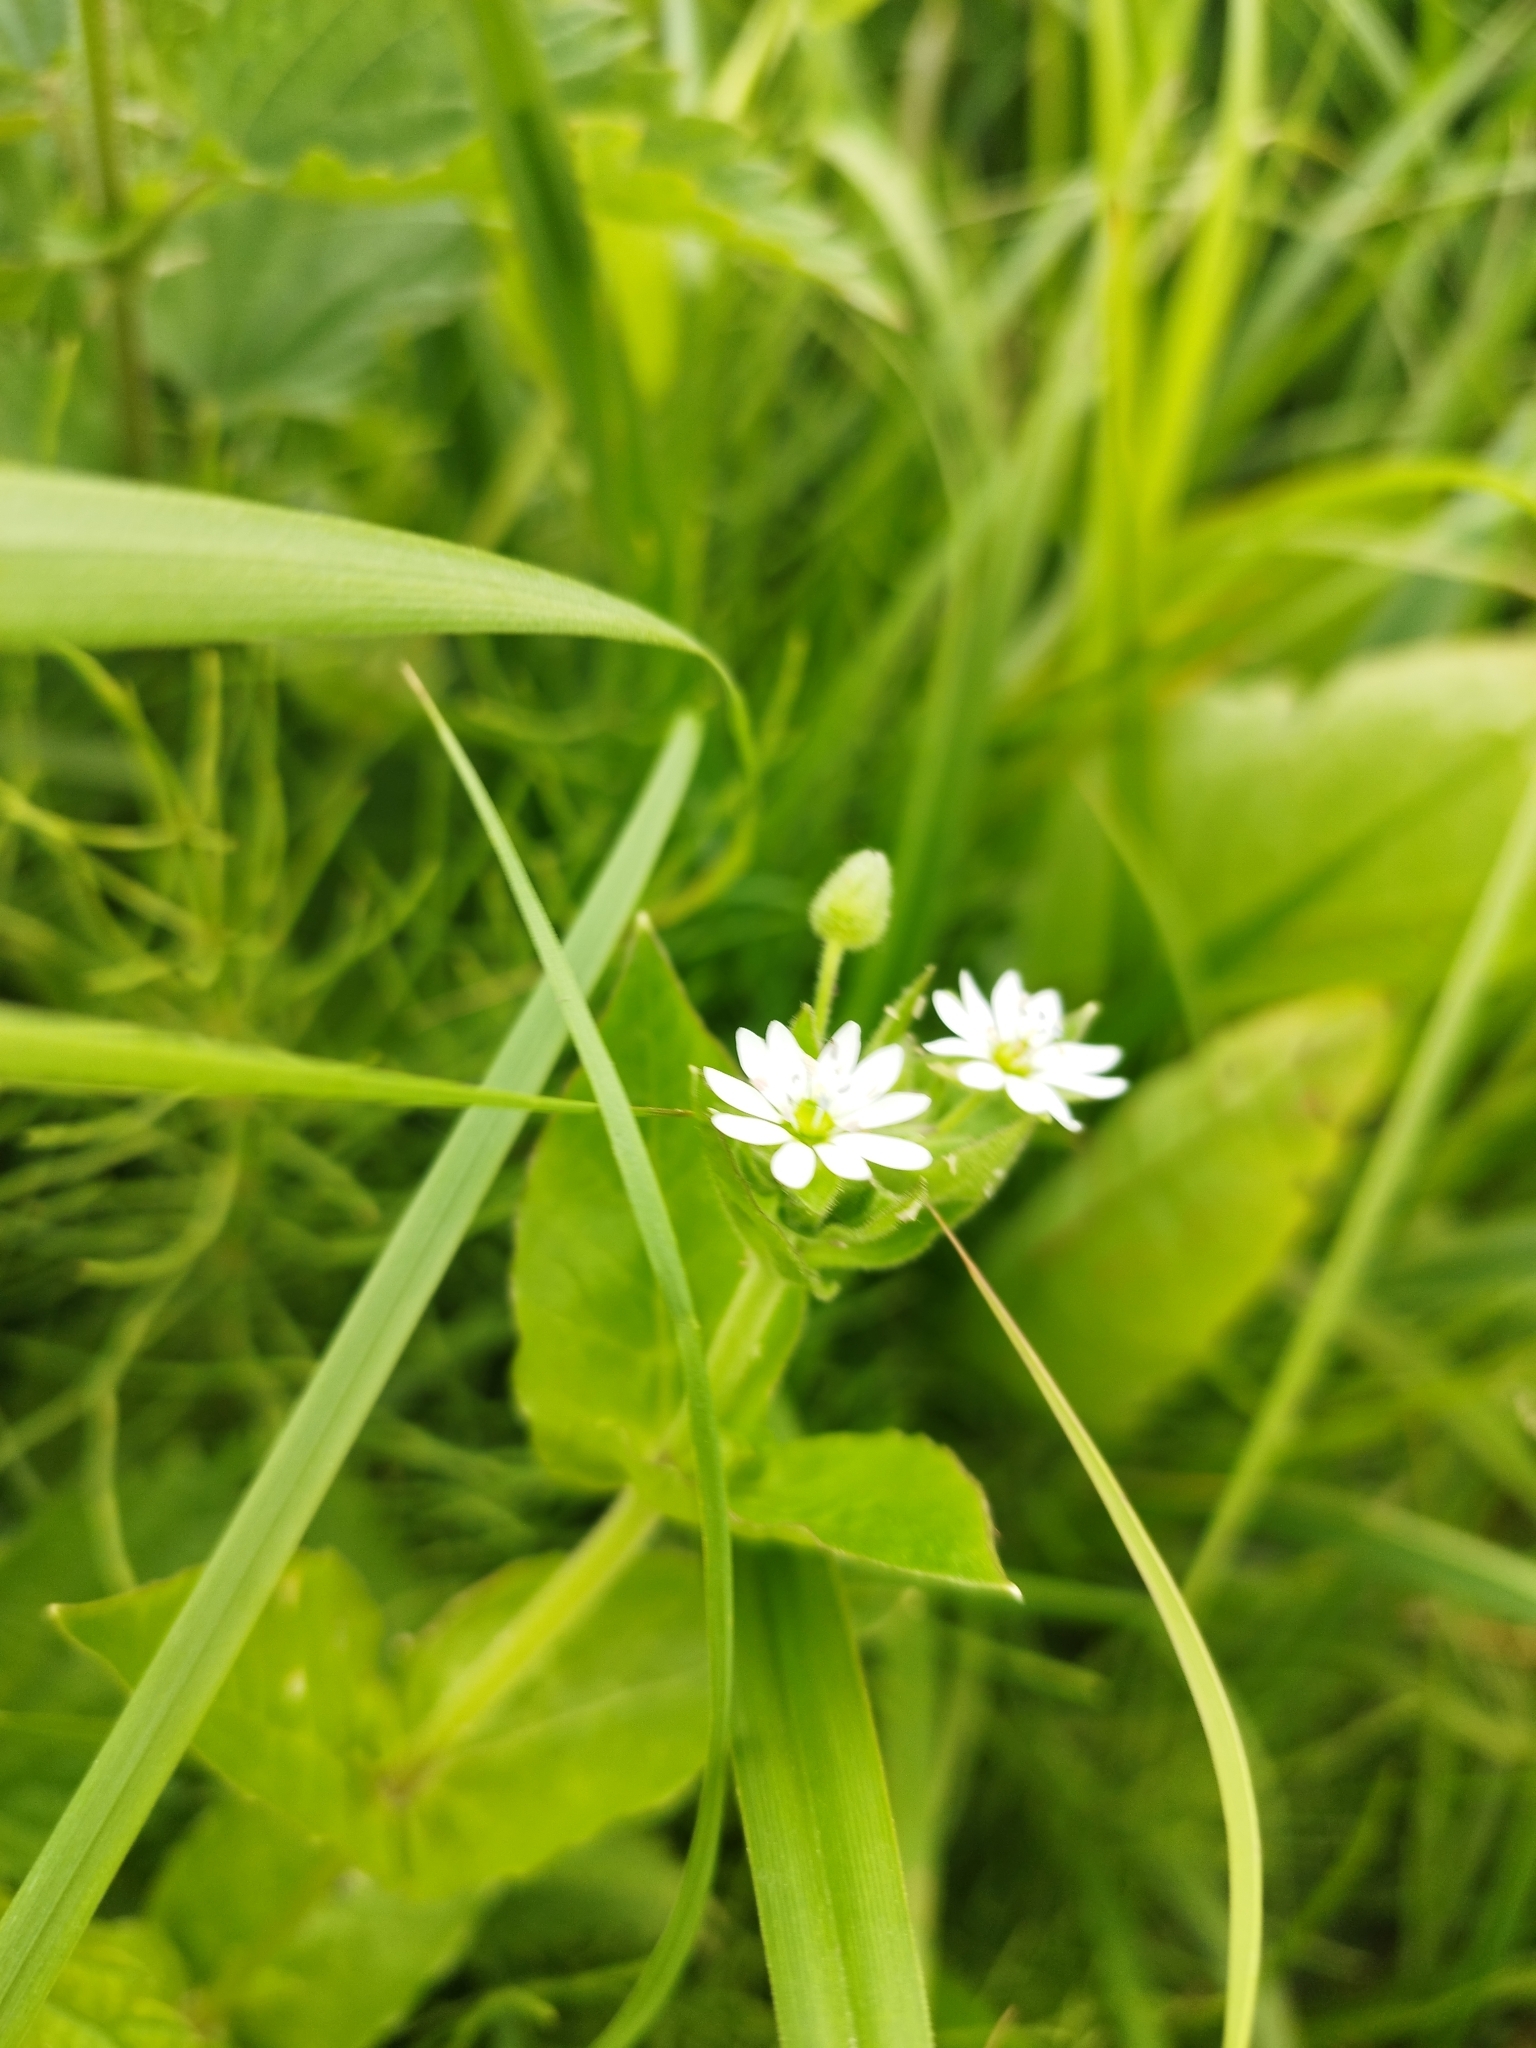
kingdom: Plantae
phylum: Tracheophyta
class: Magnoliopsida
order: Caryophyllales
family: Caryophyllaceae
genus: Stellaria
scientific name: Stellaria aquatica
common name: Water chickweed
